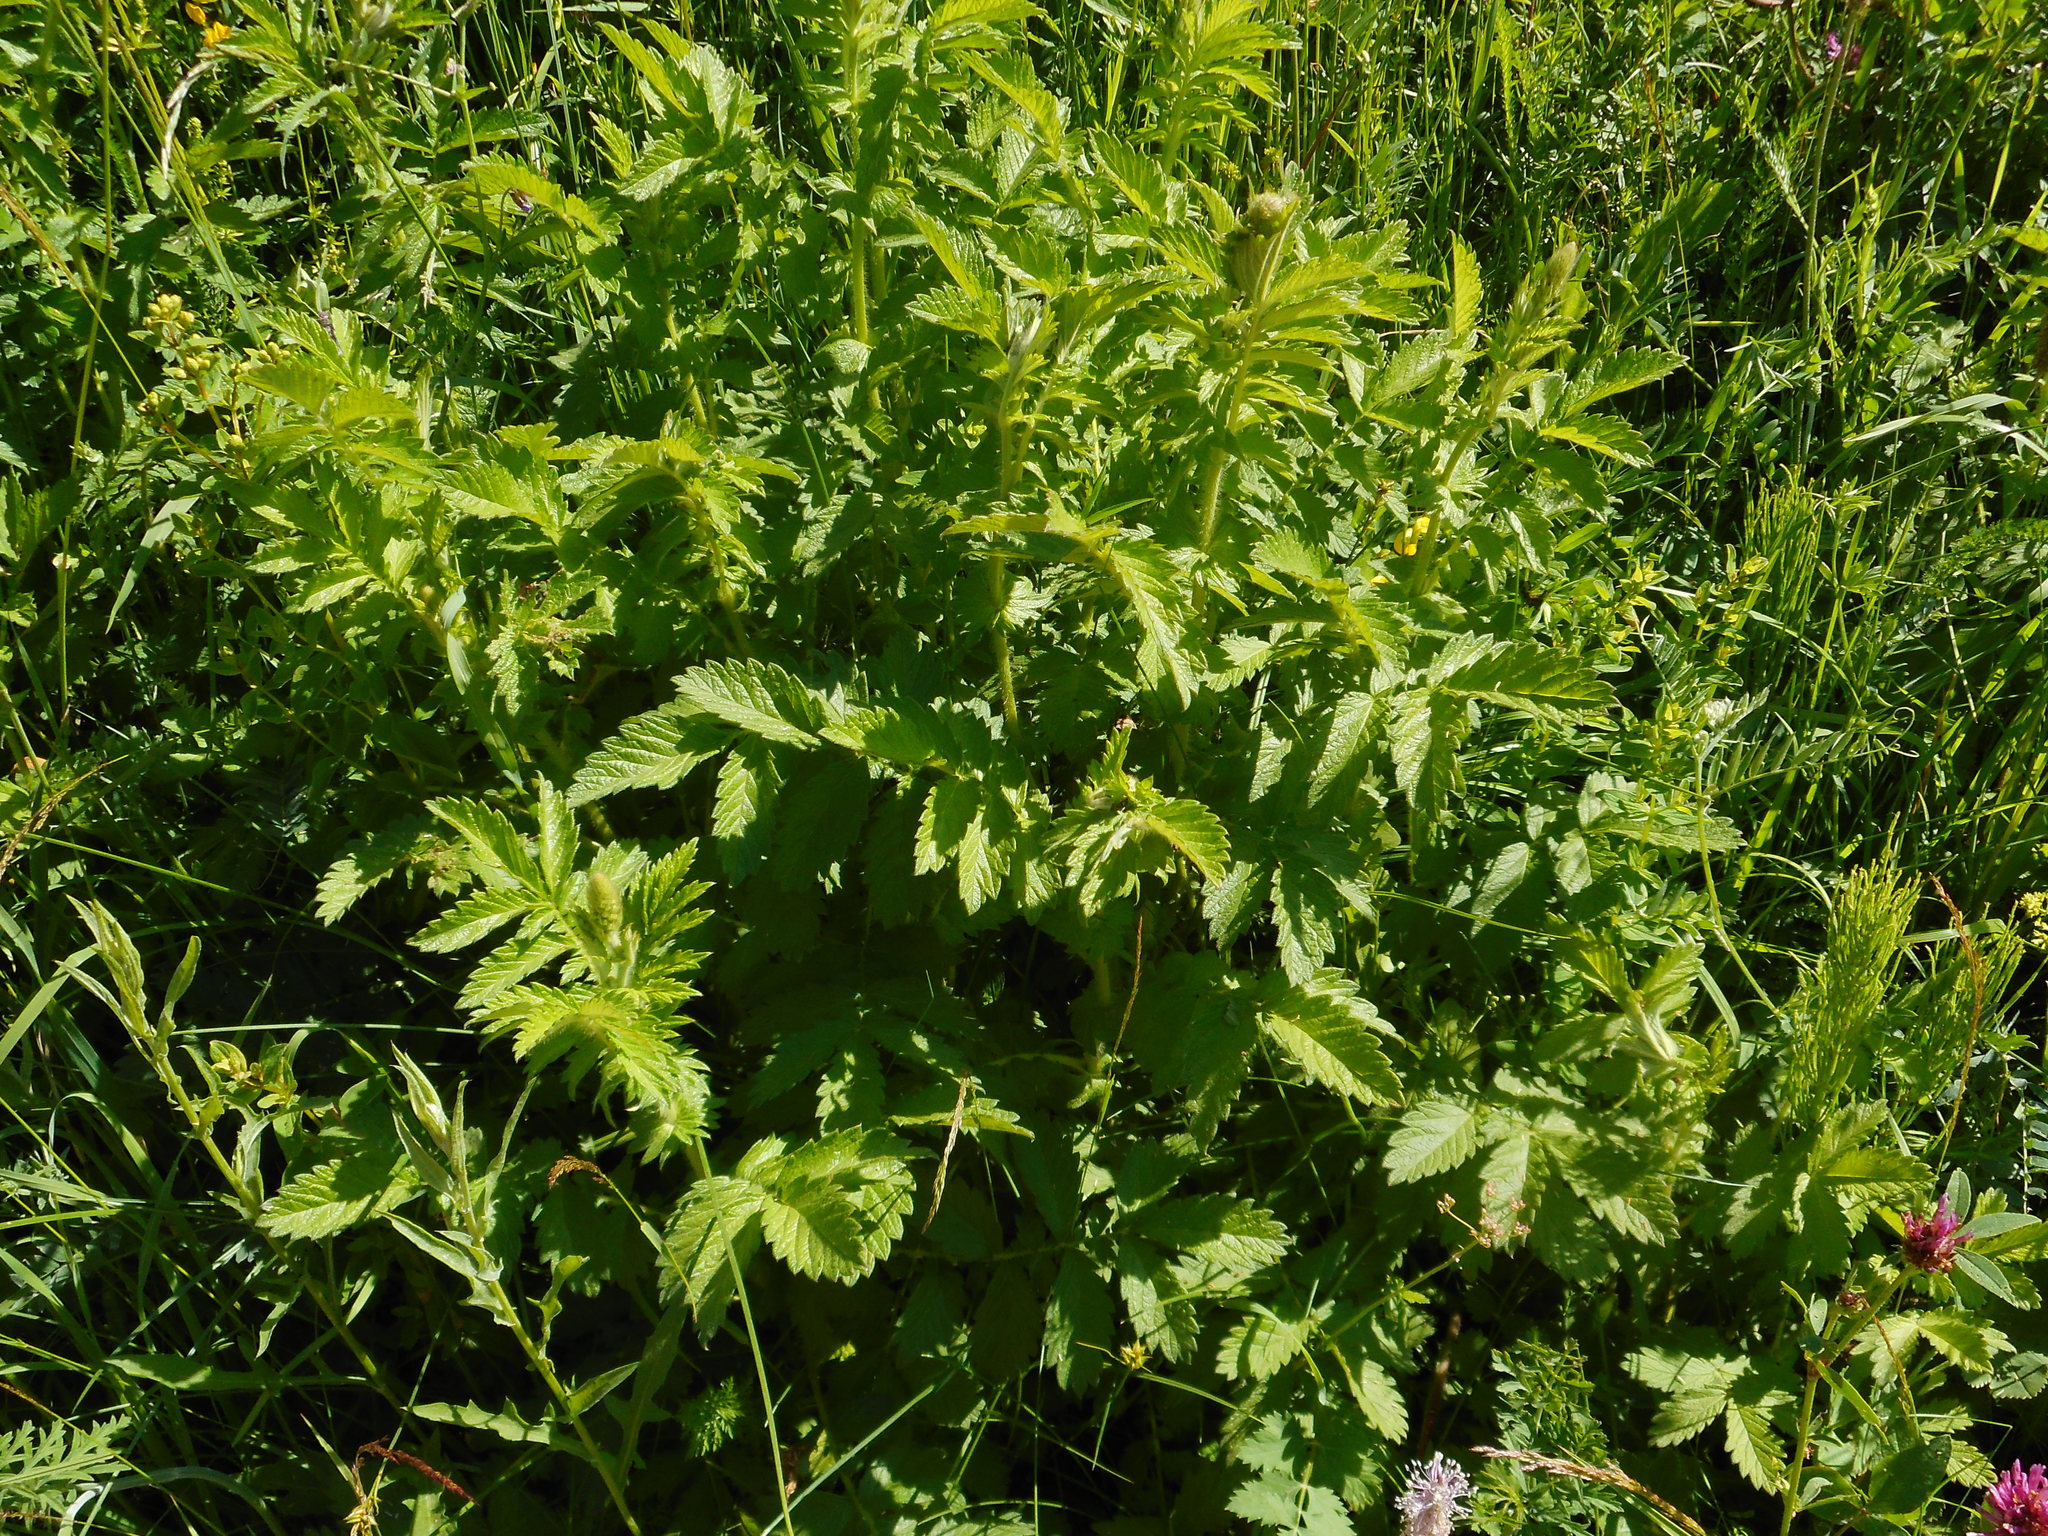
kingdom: Plantae
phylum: Tracheophyta
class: Magnoliopsida
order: Rosales
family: Rosaceae
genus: Agrimonia
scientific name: Agrimonia eupatoria
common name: Agrimony
